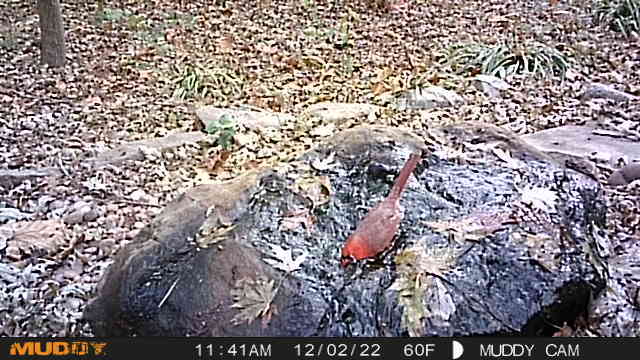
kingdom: Animalia
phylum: Chordata
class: Aves
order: Passeriformes
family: Cardinalidae
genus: Cardinalis
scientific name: Cardinalis cardinalis
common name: Northern cardinal
